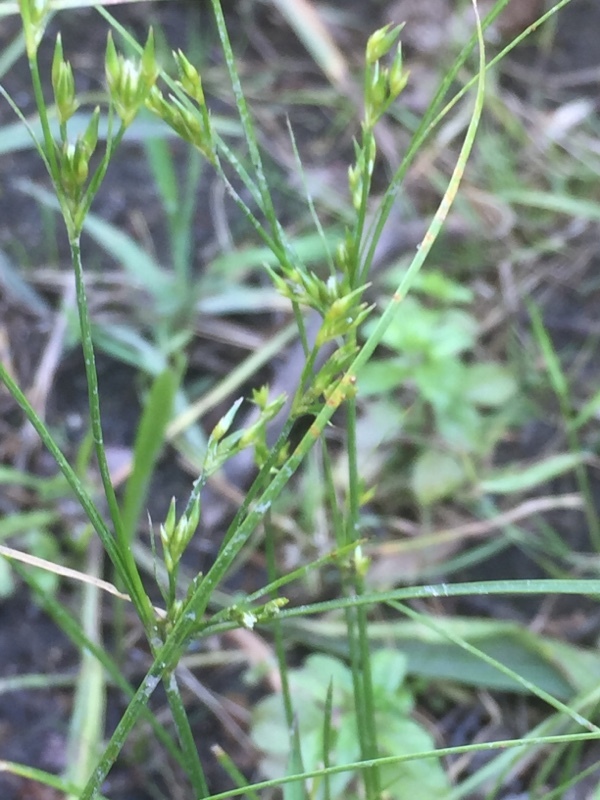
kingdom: Plantae
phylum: Tracheophyta
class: Liliopsida
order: Poales
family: Juncaceae
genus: Juncus
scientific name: Juncus tenuis
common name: Slender rush
